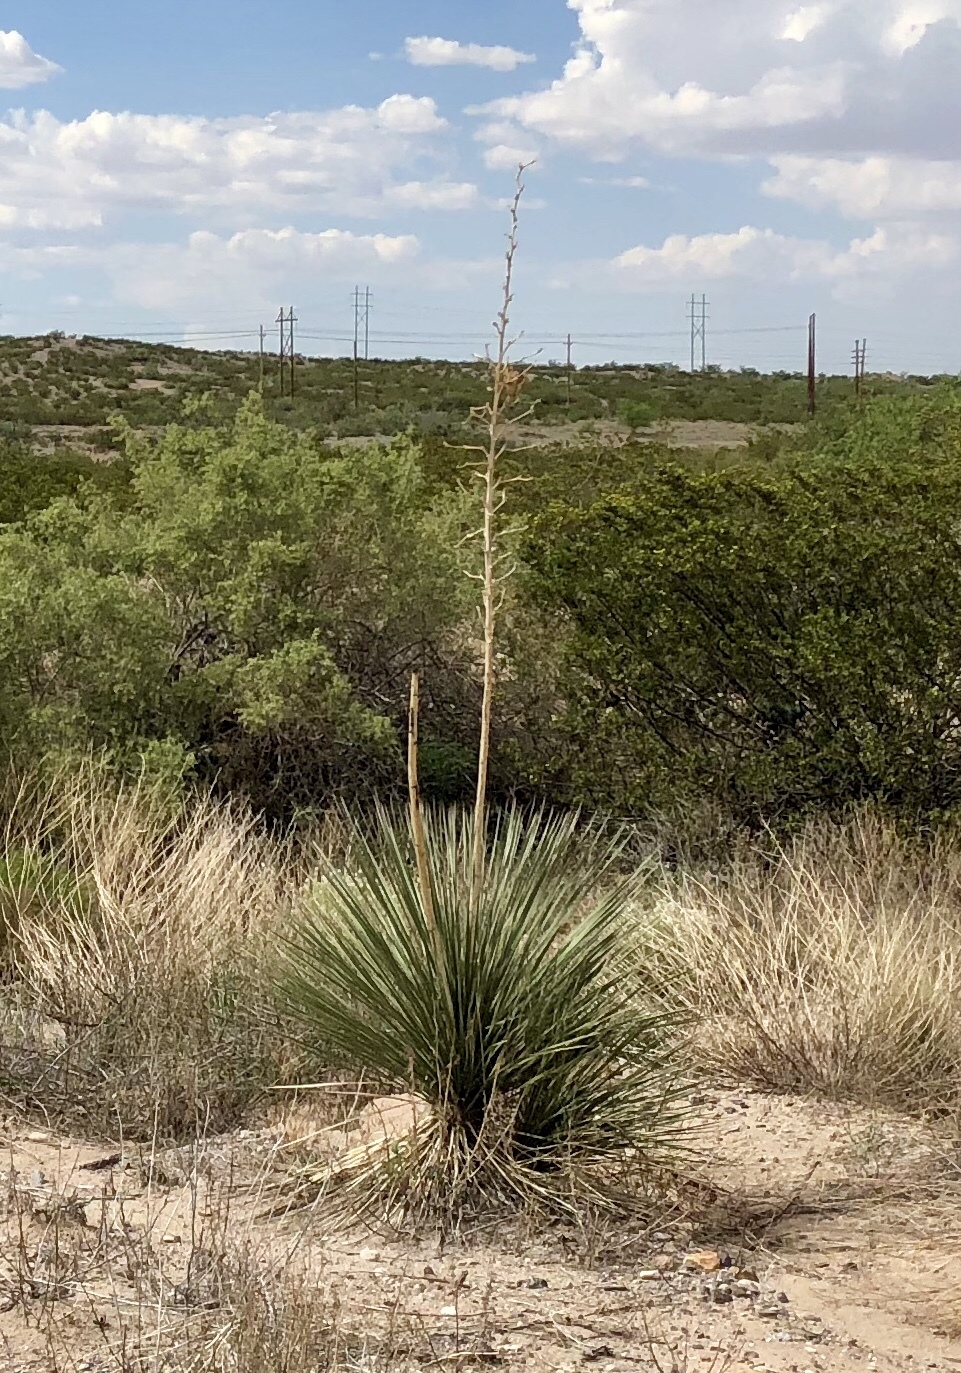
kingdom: Plantae
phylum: Tracheophyta
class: Liliopsida
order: Asparagales
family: Asparagaceae
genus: Yucca
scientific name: Yucca elata
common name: Palmella
